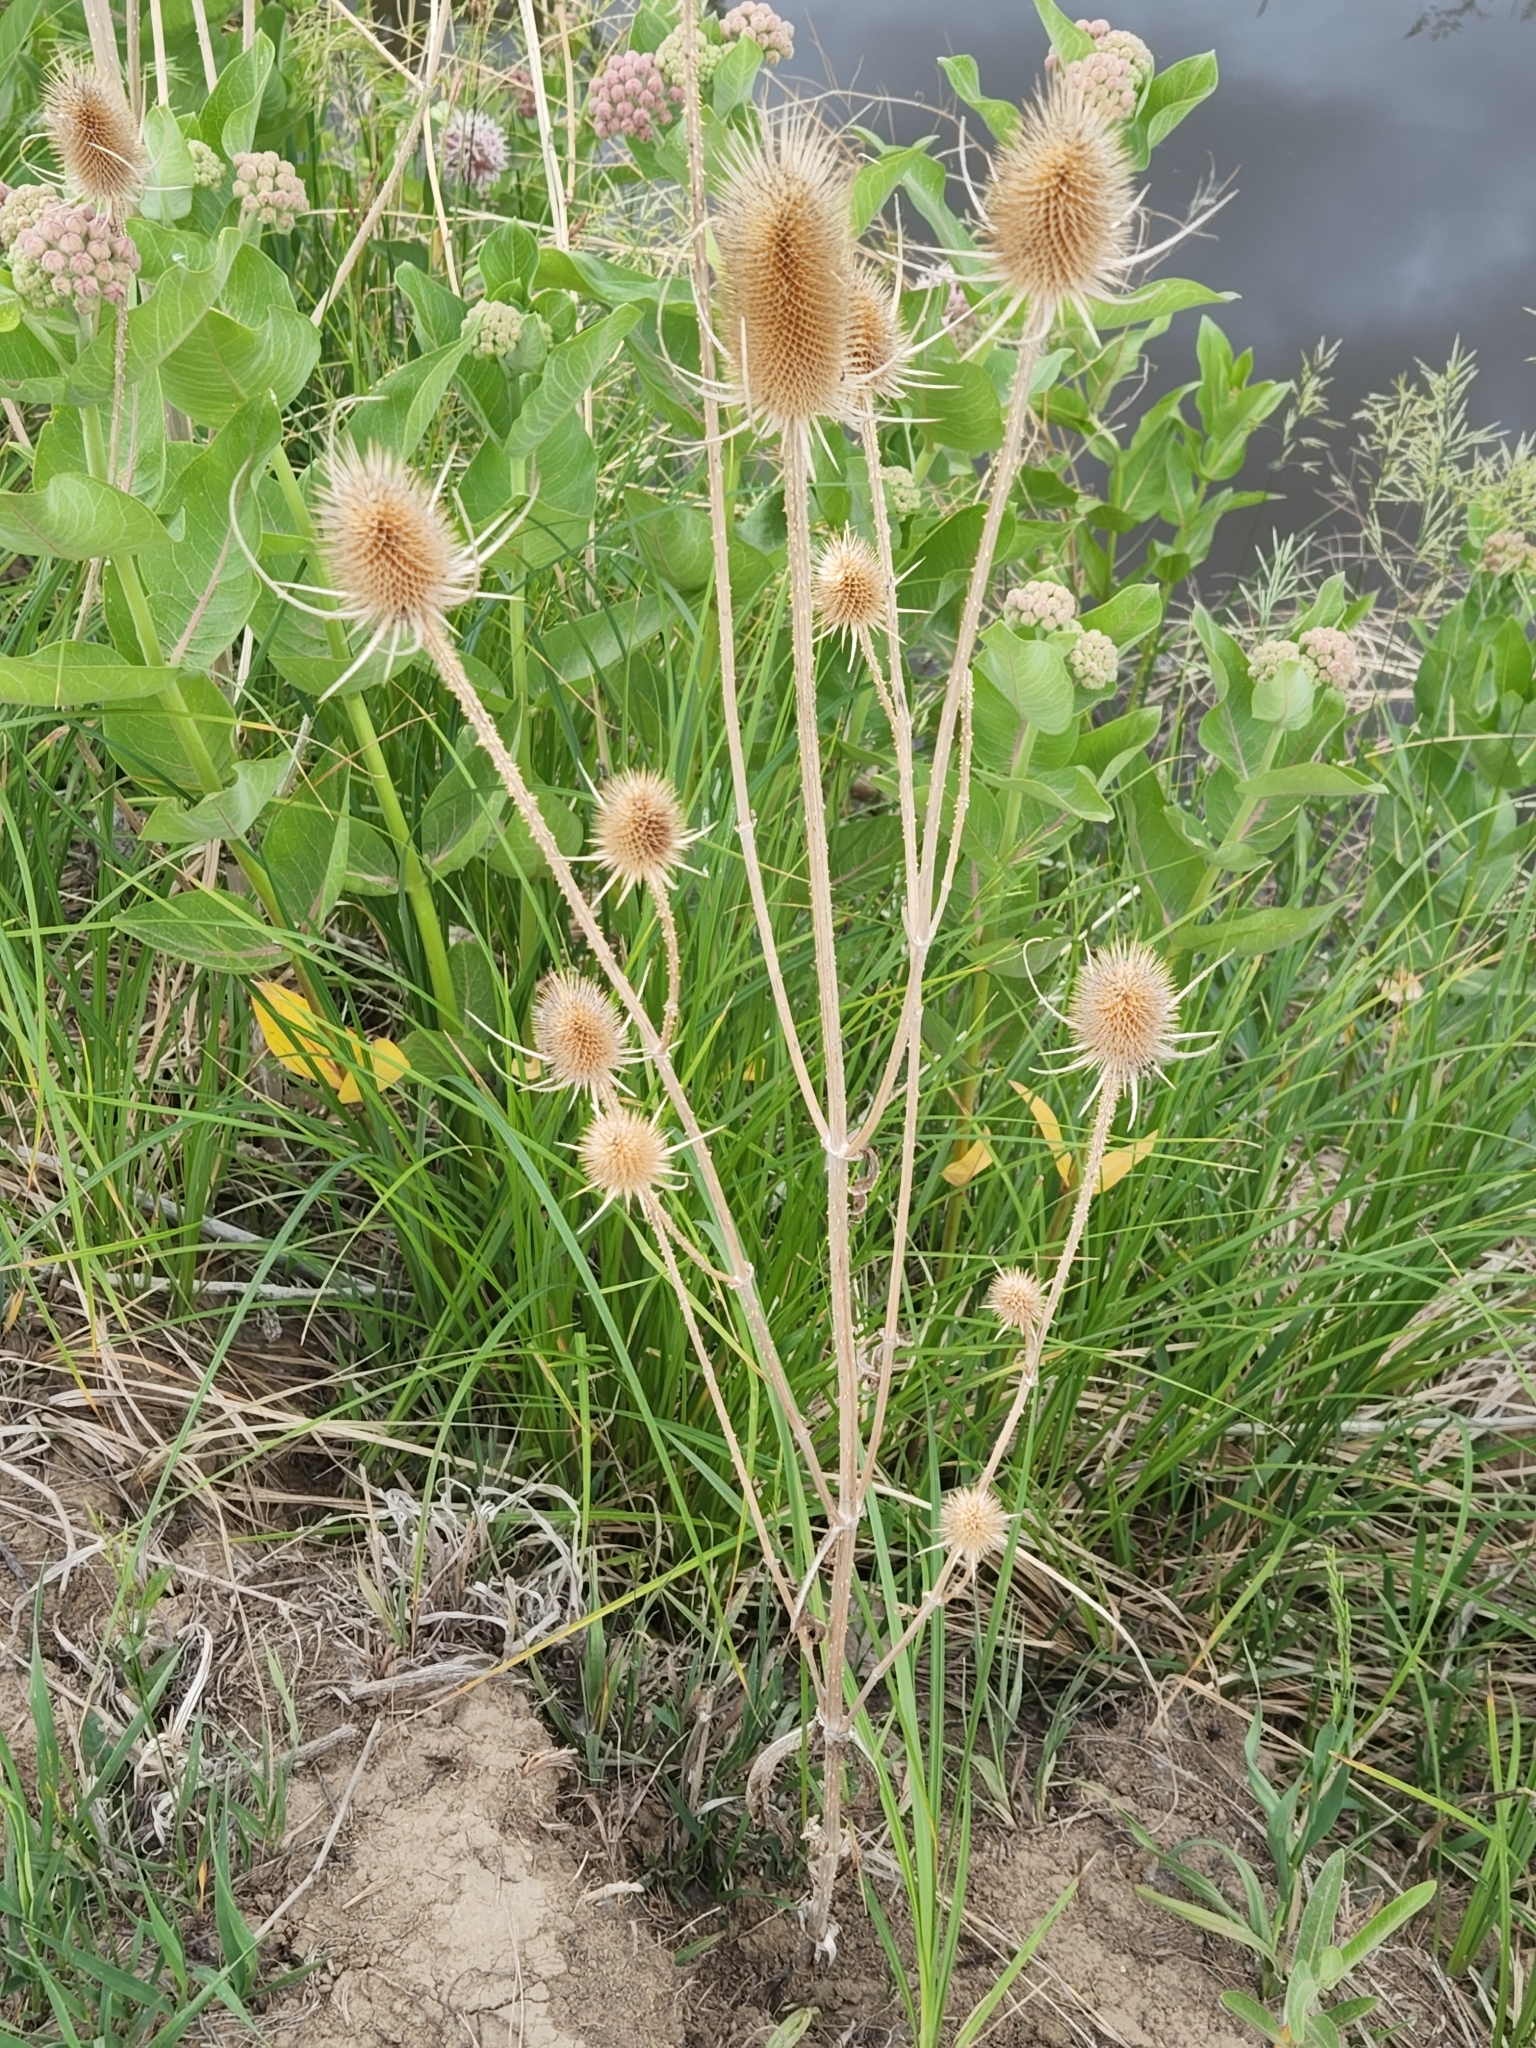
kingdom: Plantae
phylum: Tracheophyta
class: Magnoliopsida
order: Dipsacales
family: Caprifoliaceae
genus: Dipsacus
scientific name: Dipsacus fullonum
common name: Teasel
